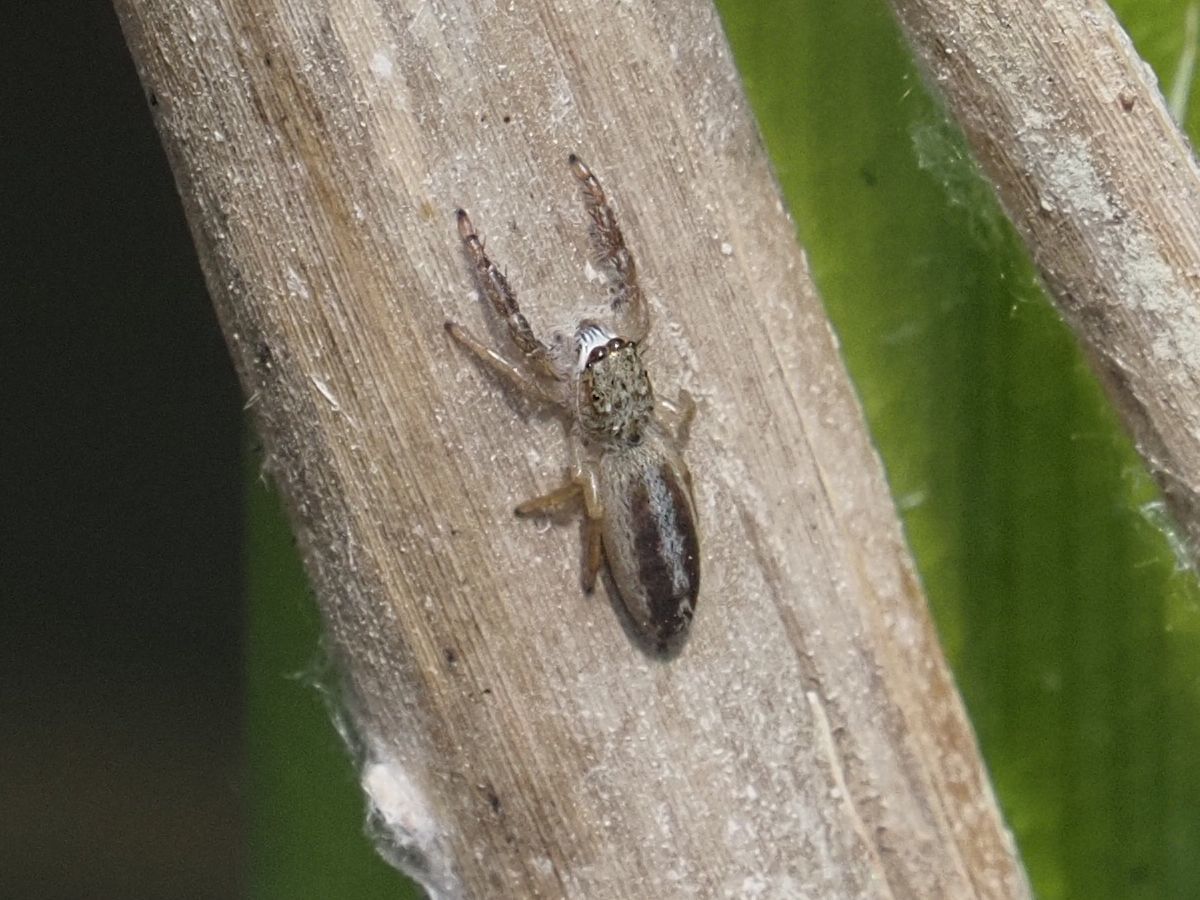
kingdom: Animalia
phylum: Arthropoda
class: Arachnida
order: Araneae
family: Salticidae
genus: Mendoza
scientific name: Mendoza canestrinii
